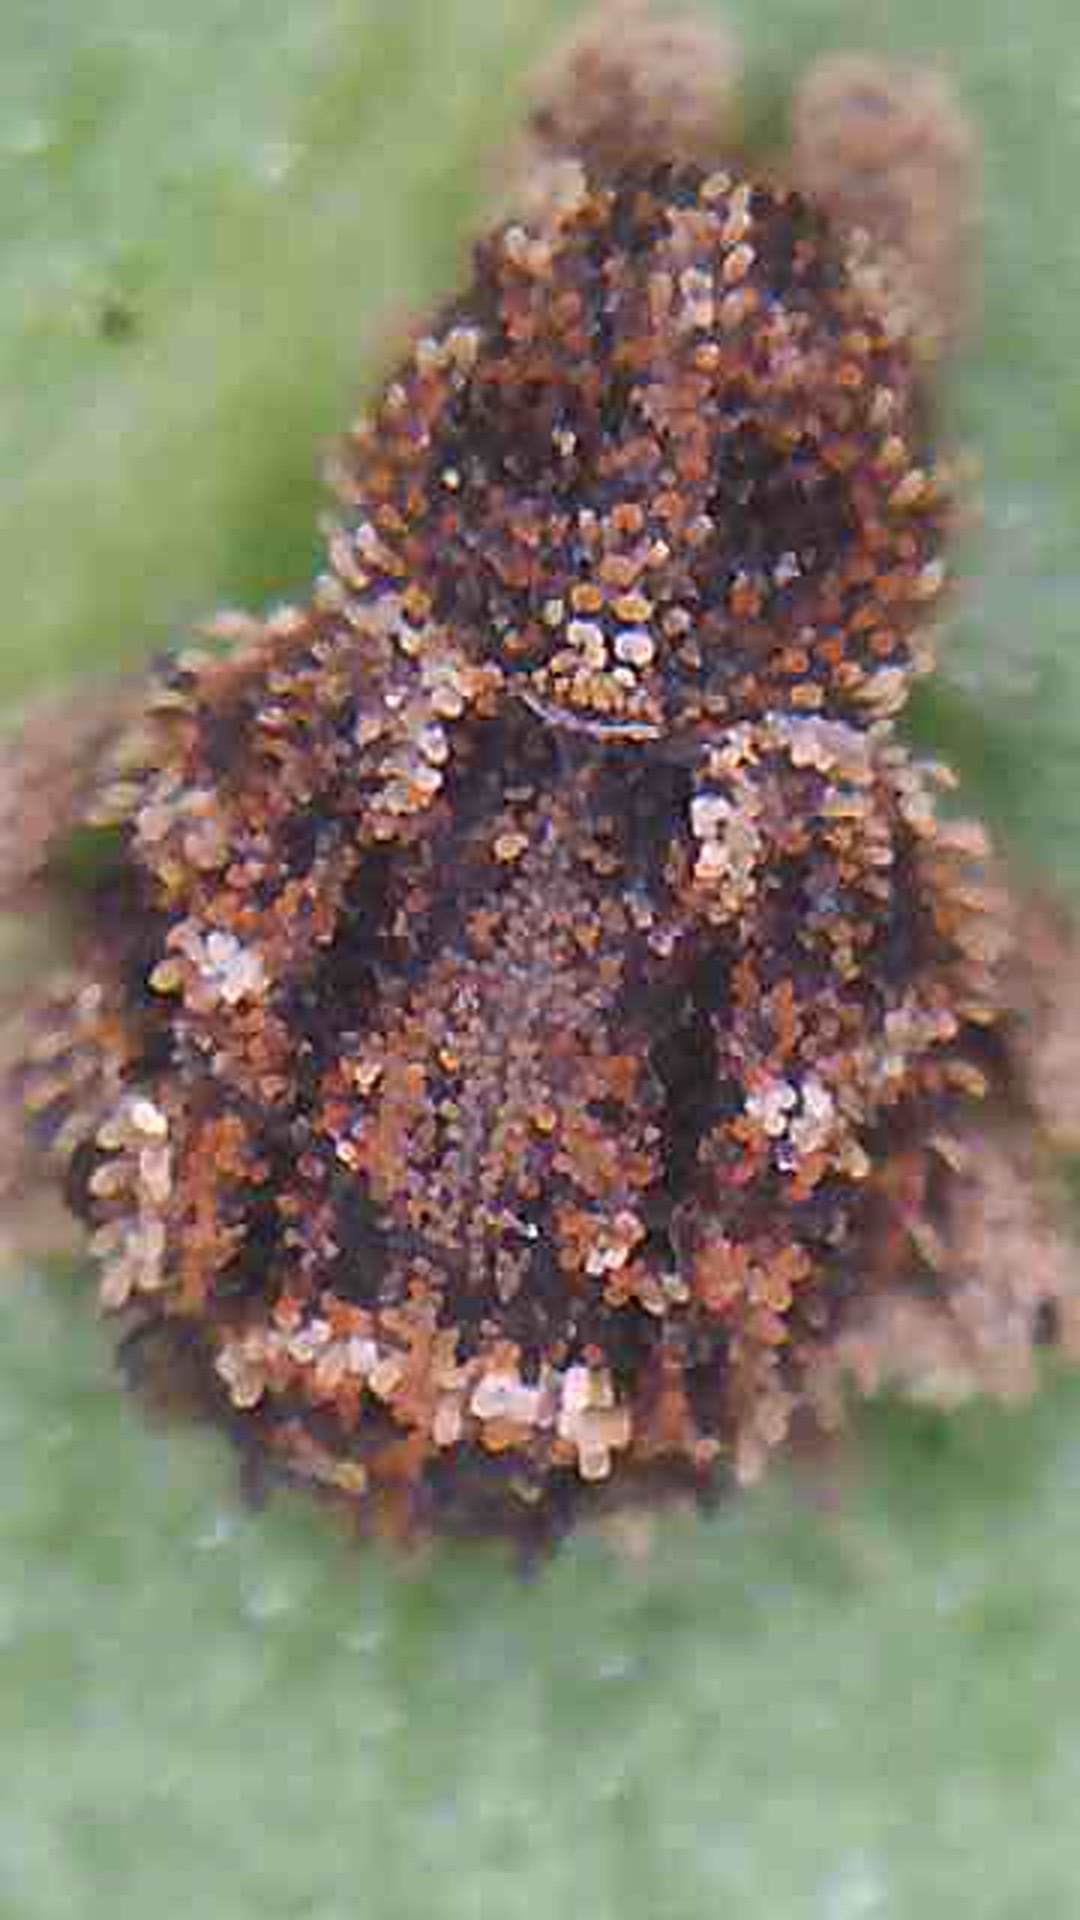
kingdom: Animalia
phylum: Arthropoda
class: Insecta
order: Coleoptera
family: Curculionidae
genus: Andracalles
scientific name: Andracalles horridus
